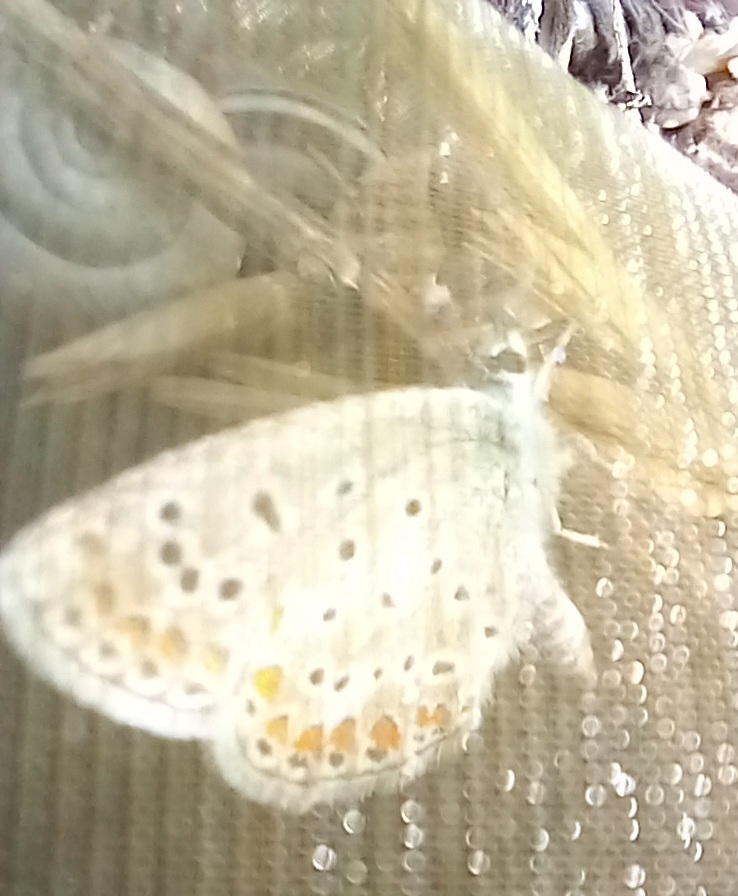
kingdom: Animalia
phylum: Arthropoda
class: Insecta
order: Lepidoptera
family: Lycaenidae
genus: Polyommatus
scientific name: Polyommatus icarus
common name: Common blue
